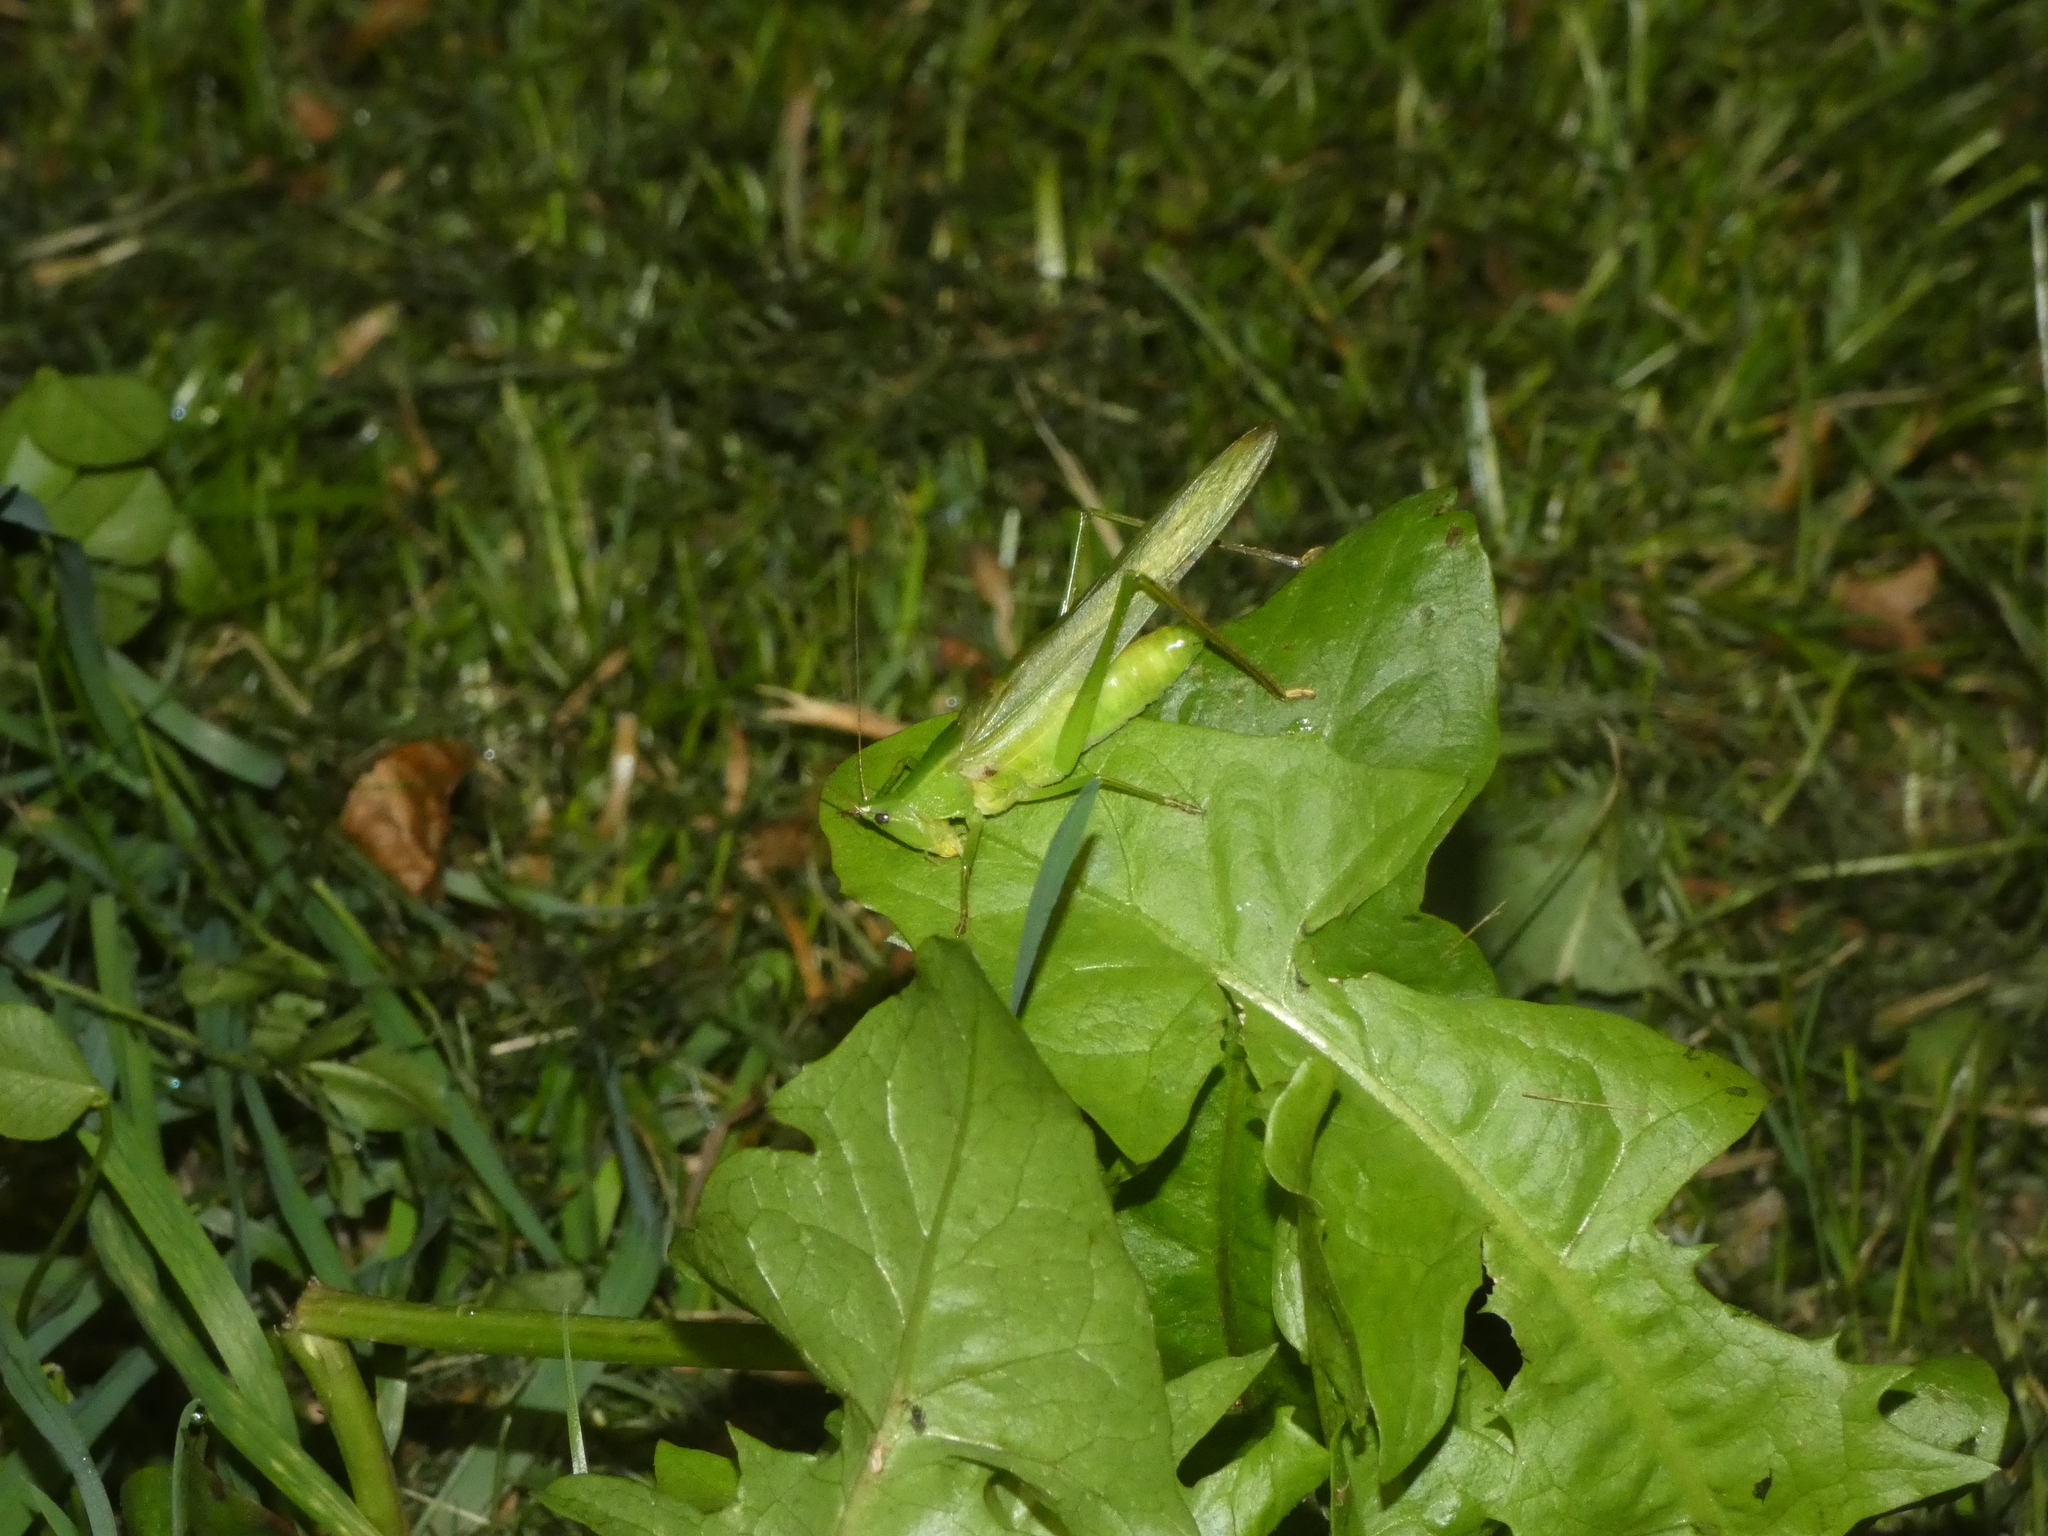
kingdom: Animalia
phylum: Arthropoda
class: Insecta
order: Orthoptera
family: Tettigoniidae
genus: Ruspolia
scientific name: Ruspolia nitidula
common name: Large conehead
